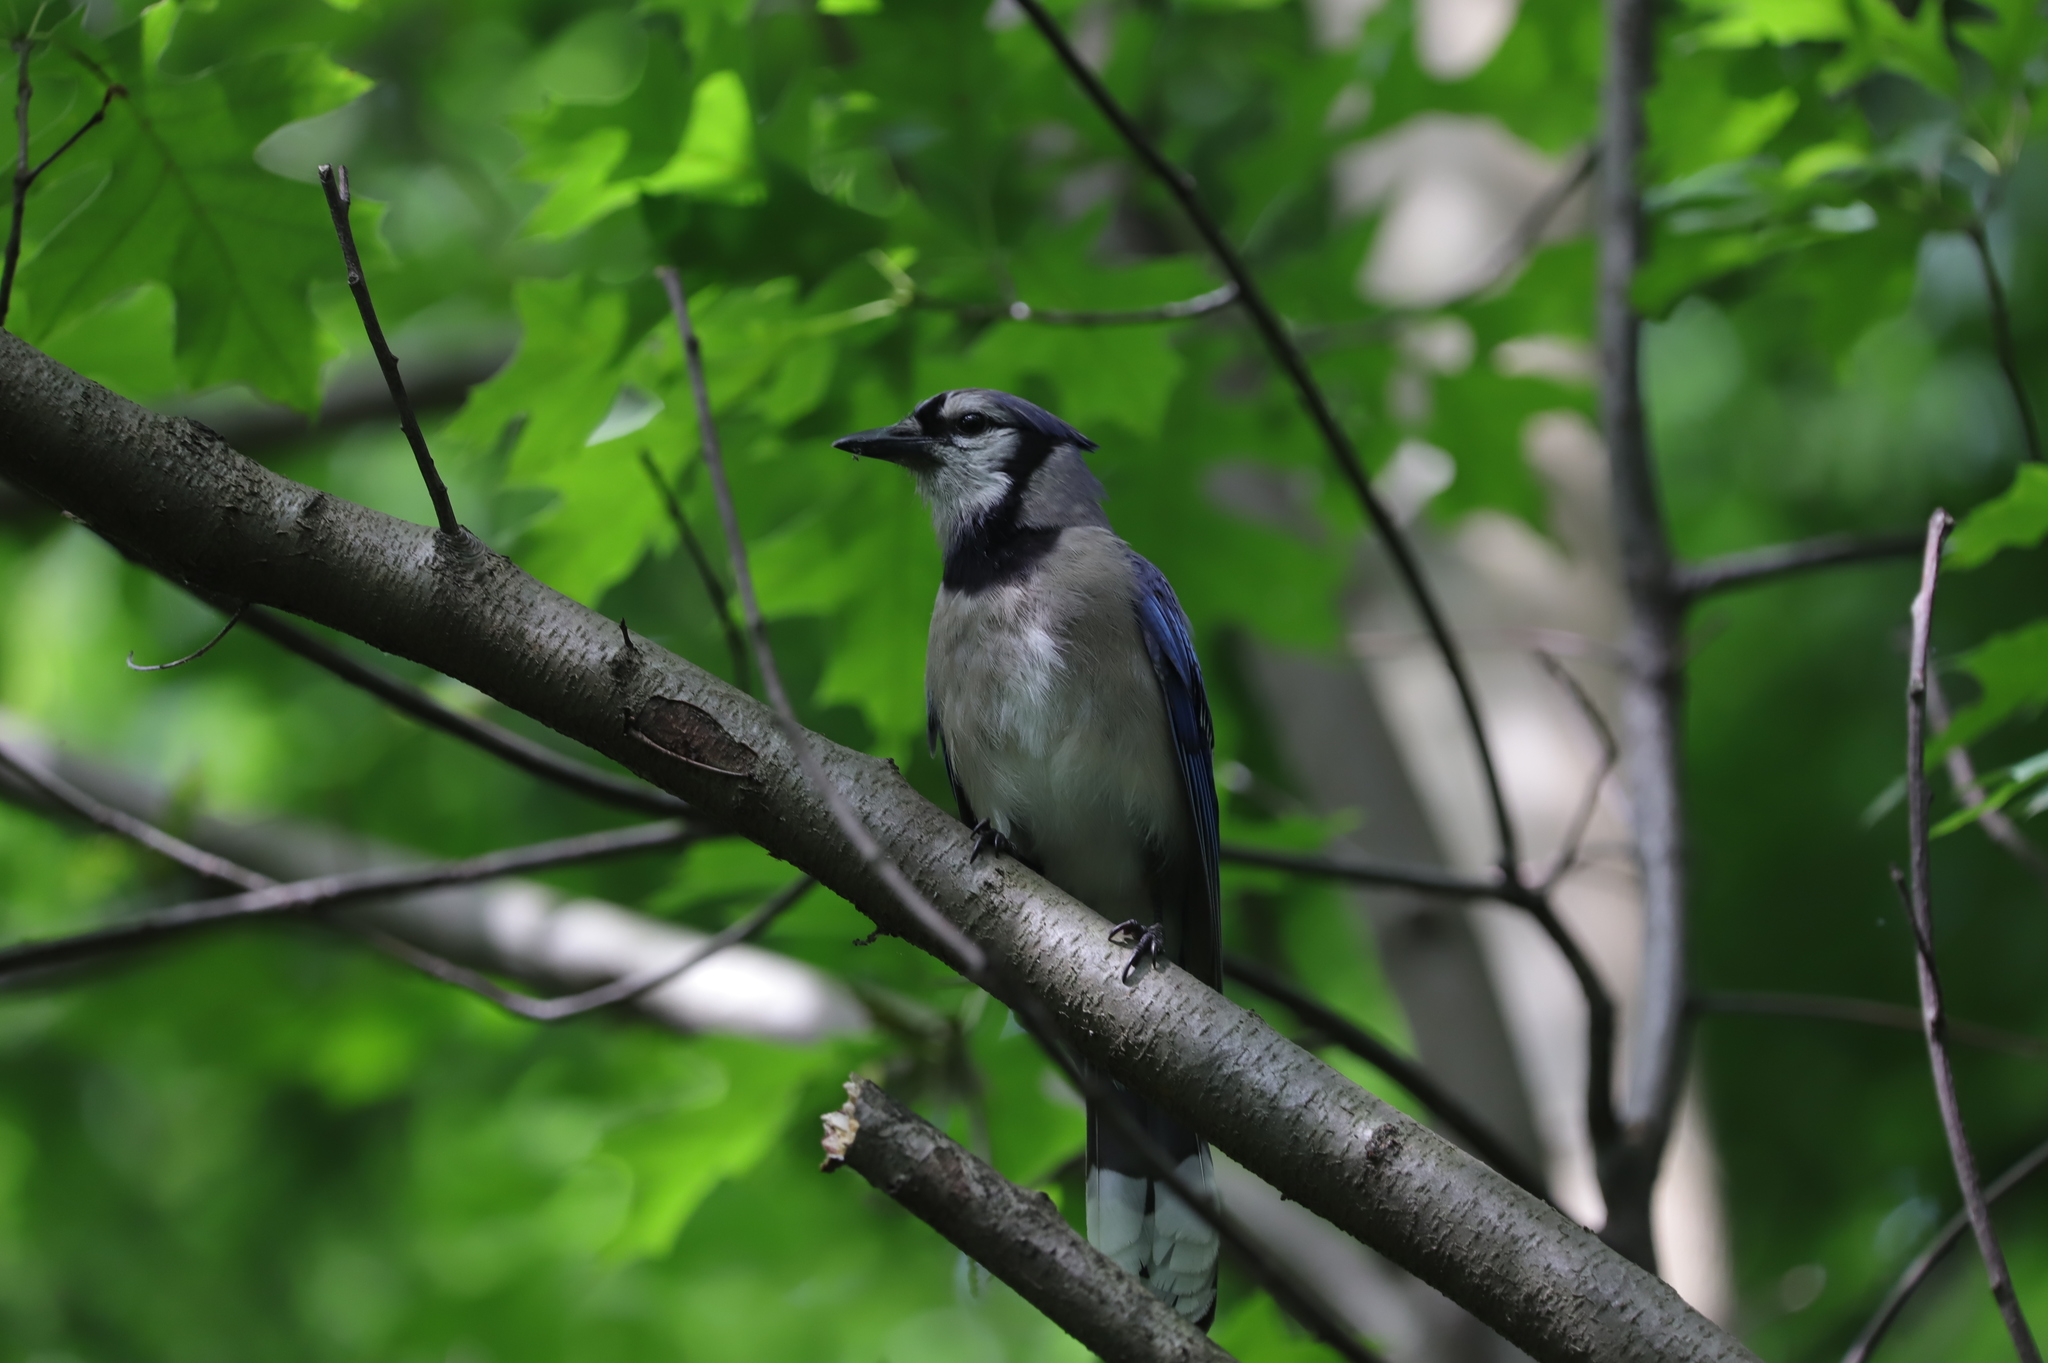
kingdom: Animalia
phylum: Chordata
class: Aves
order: Passeriformes
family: Corvidae
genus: Cyanocitta
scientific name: Cyanocitta cristata
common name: Blue jay
